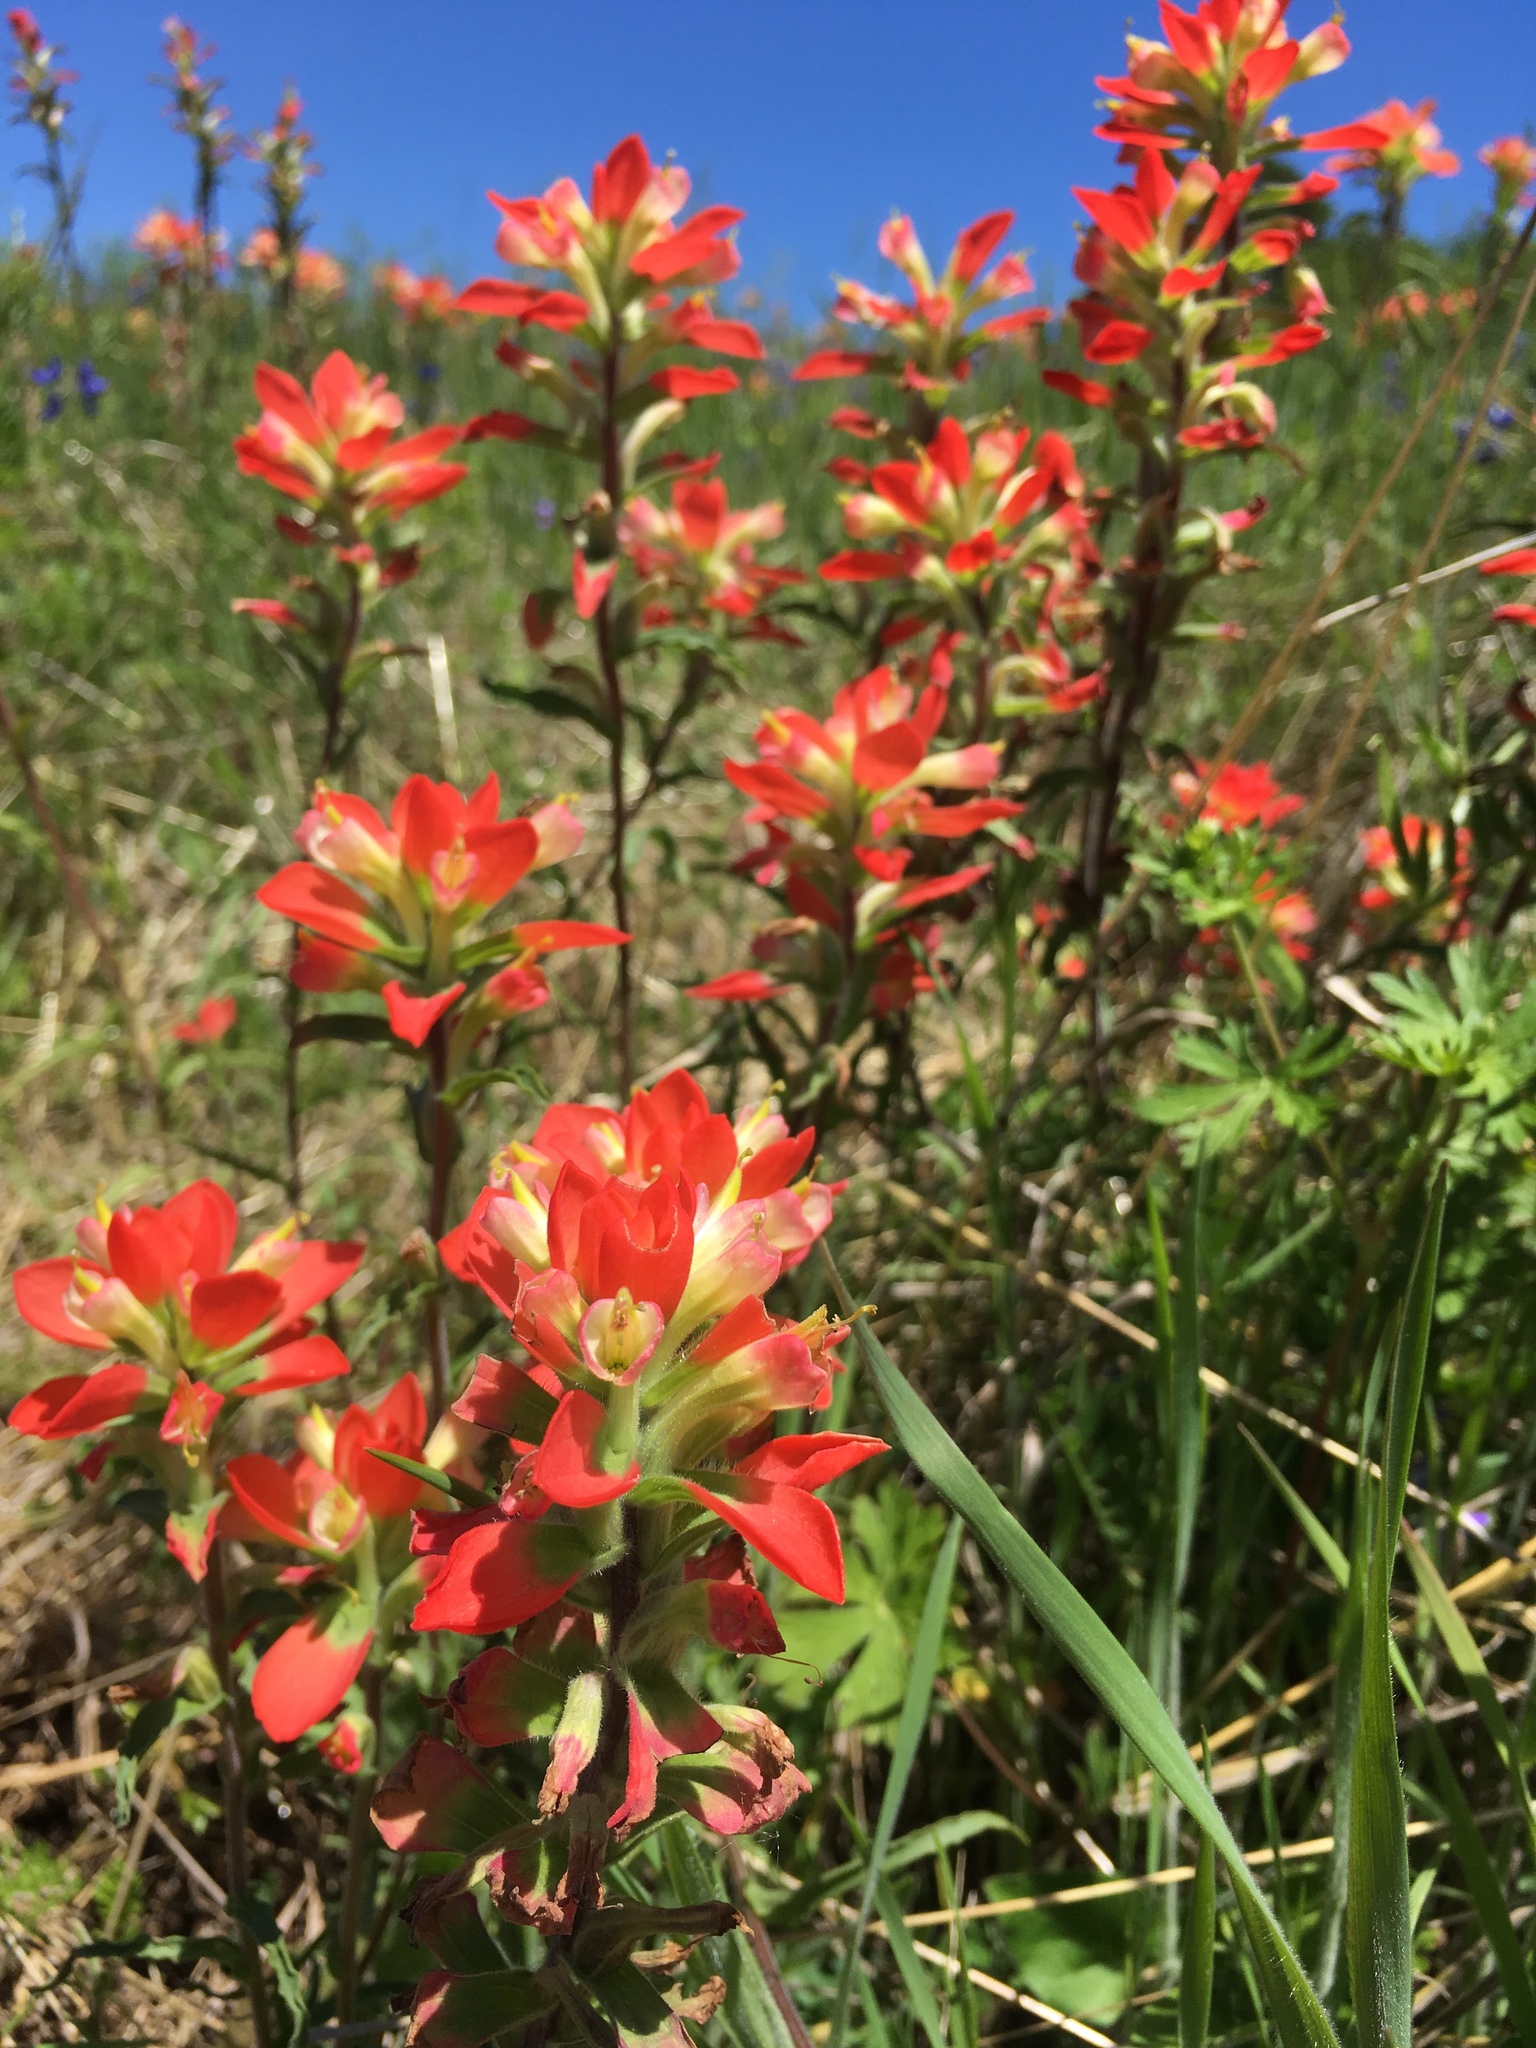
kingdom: Plantae
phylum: Tracheophyta
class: Magnoliopsida
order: Lamiales
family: Orobanchaceae
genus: Castilleja
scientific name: Castilleja indivisa
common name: Texas paintbrush
